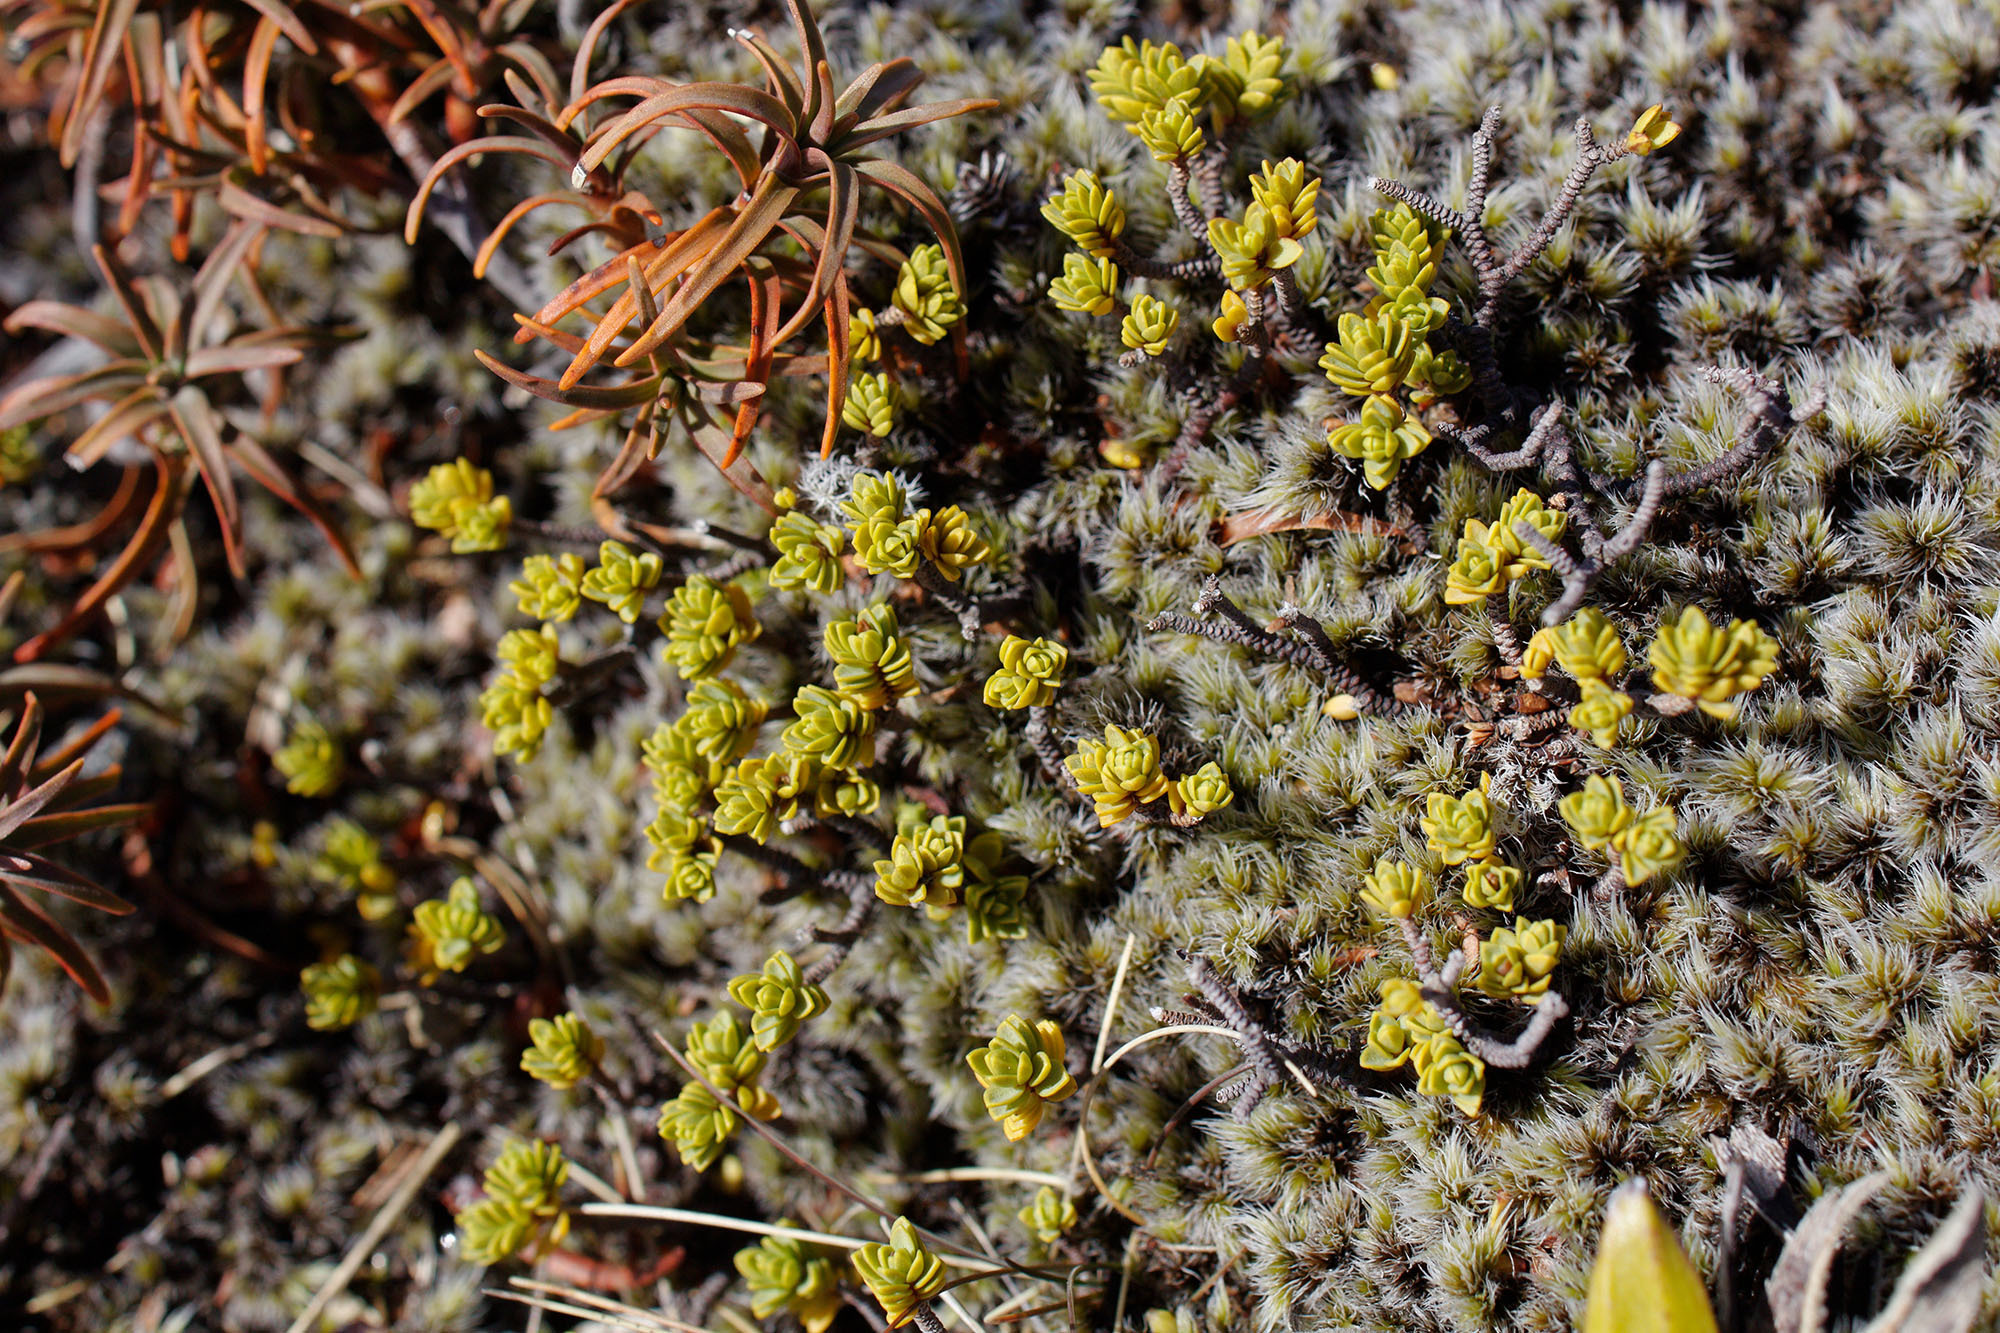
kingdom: Plantae
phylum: Tracheophyta
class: Magnoliopsida
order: Malvales
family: Thymelaeaceae
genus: Pimelea
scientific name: Pimelea microphylla
